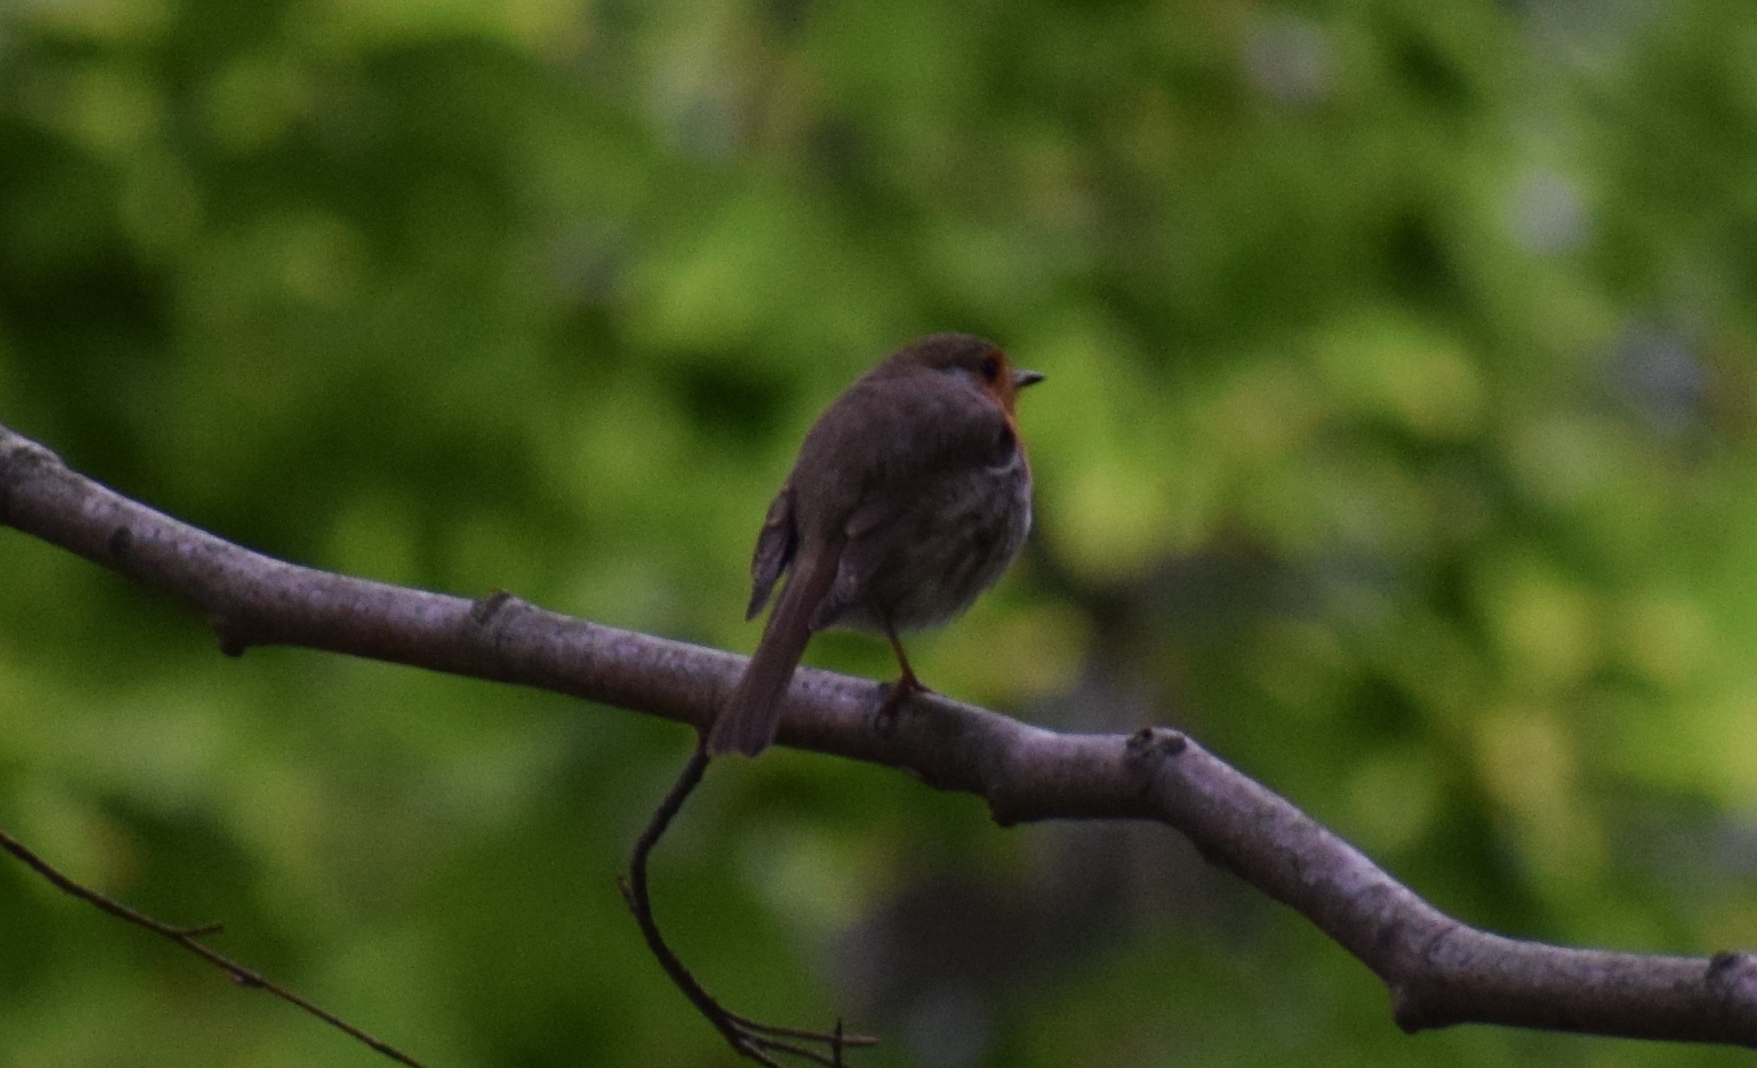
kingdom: Animalia
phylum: Chordata
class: Aves
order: Passeriformes
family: Muscicapidae
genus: Erithacus
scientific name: Erithacus rubecula
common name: European robin
